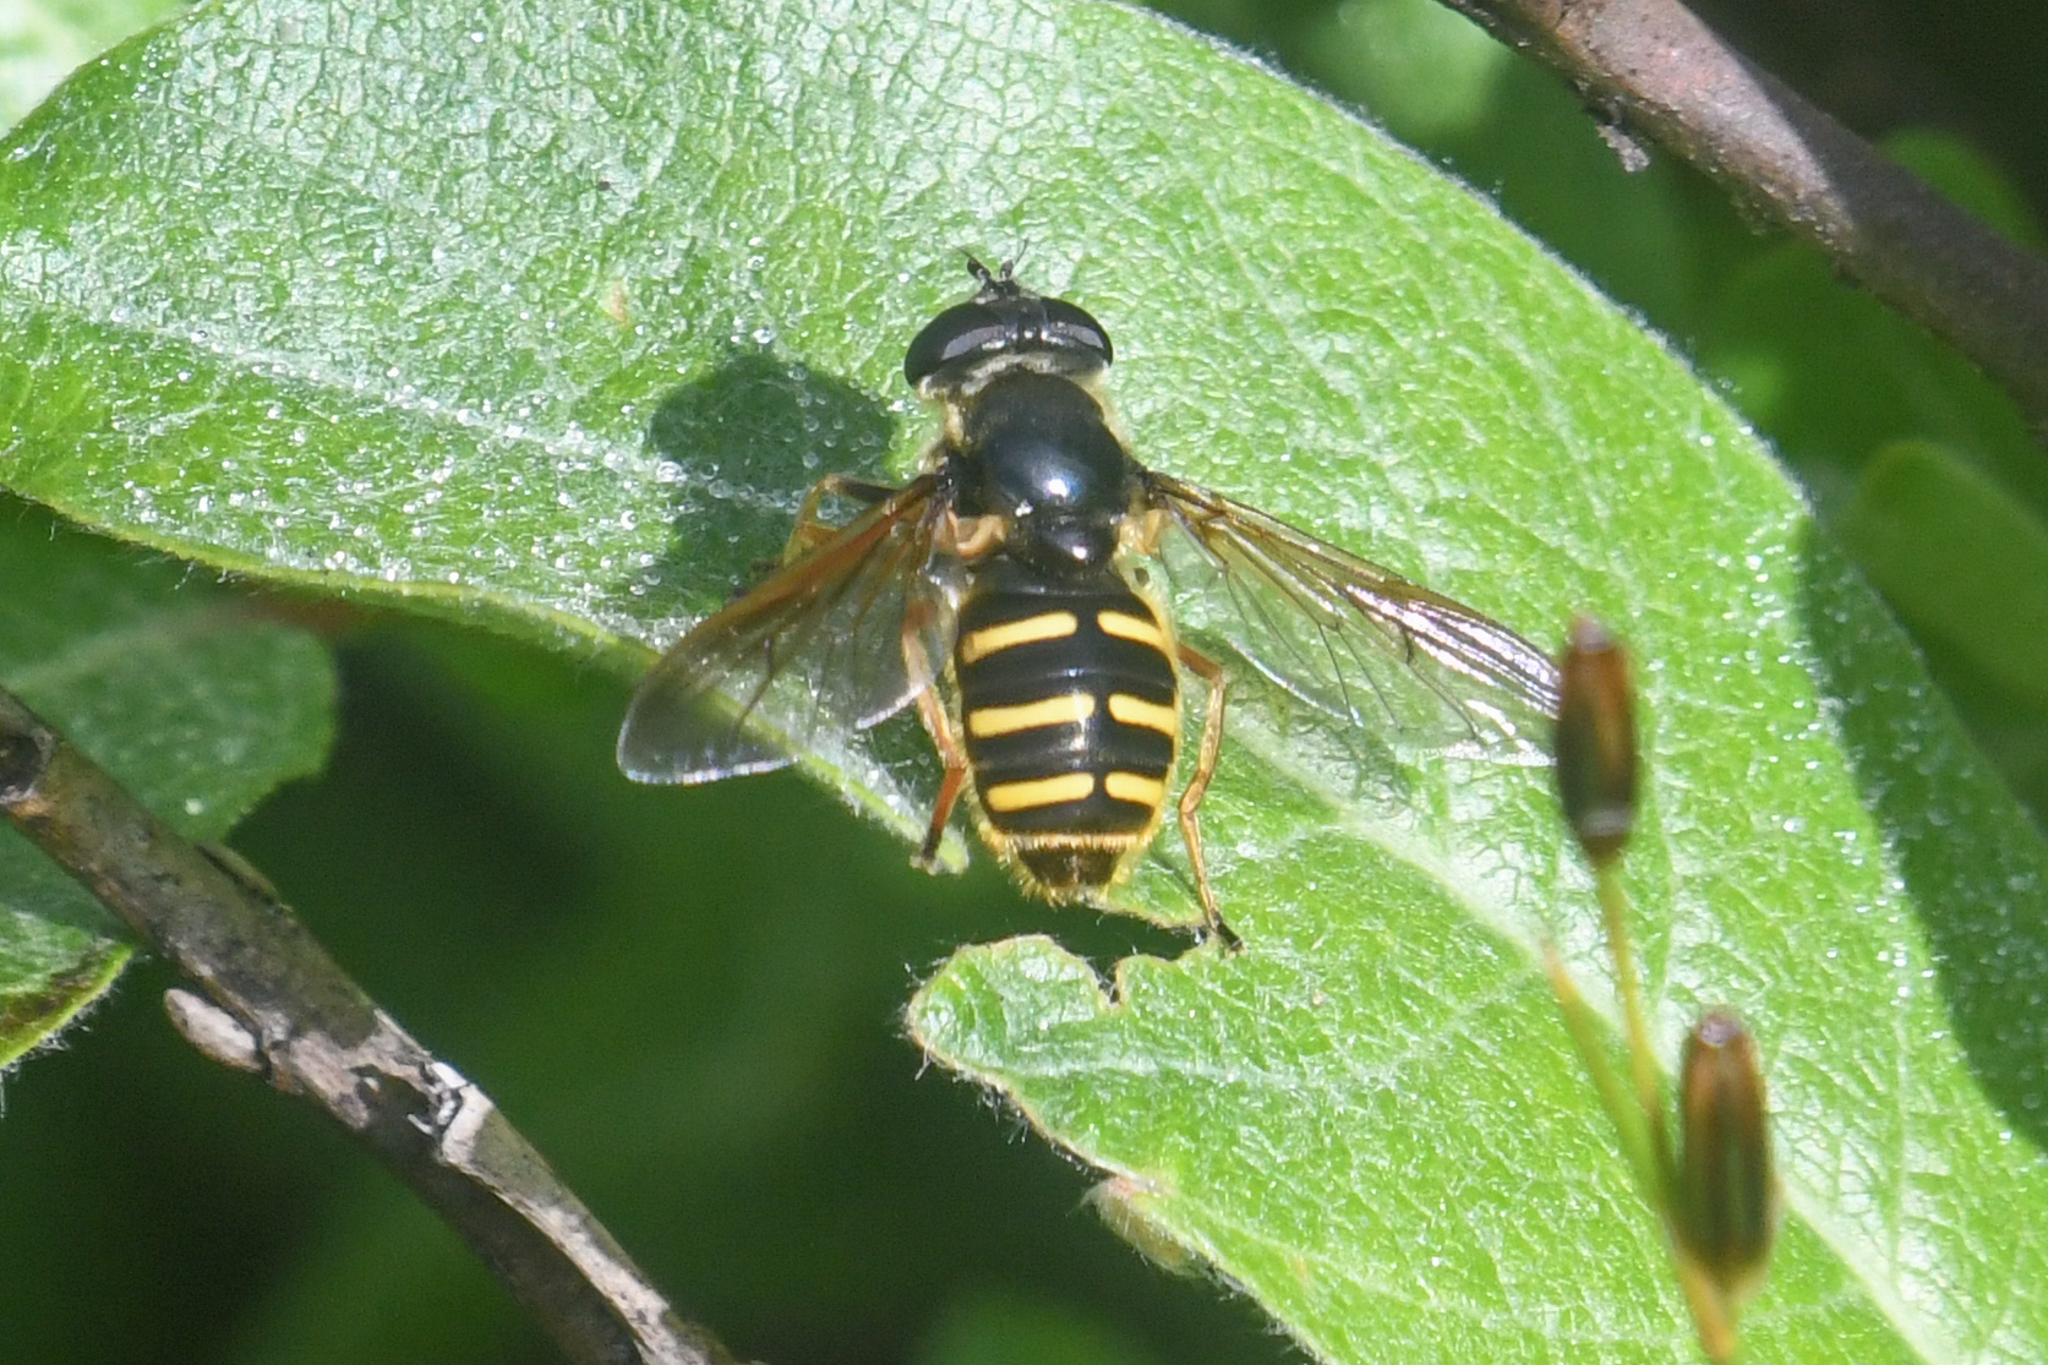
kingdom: Animalia
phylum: Arthropoda
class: Insecta
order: Diptera
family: Syrphidae
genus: Sericomyia
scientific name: Sericomyia chalcopyga
